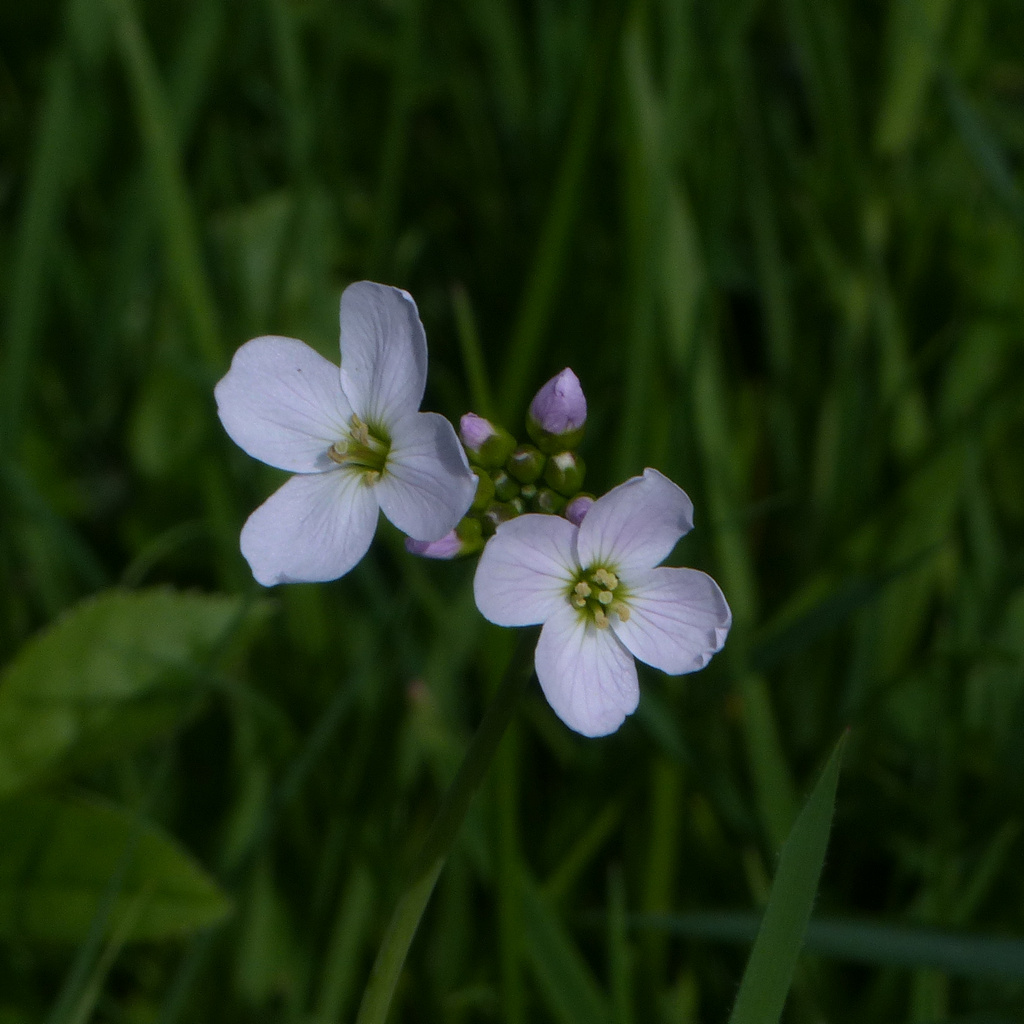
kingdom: Plantae
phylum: Tracheophyta
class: Magnoliopsida
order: Brassicales
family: Brassicaceae
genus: Cardamine
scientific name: Cardamine pratensis
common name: Cuckoo flower
